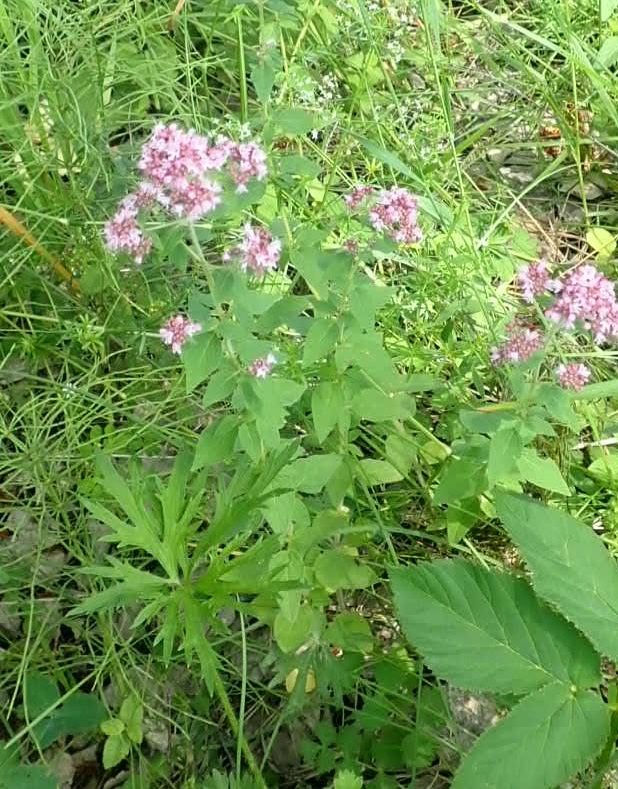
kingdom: Plantae
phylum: Tracheophyta
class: Magnoliopsida
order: Lamiales
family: Lamiaceae
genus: Origanum
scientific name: Origanum vulgare
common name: Wild marjoram
